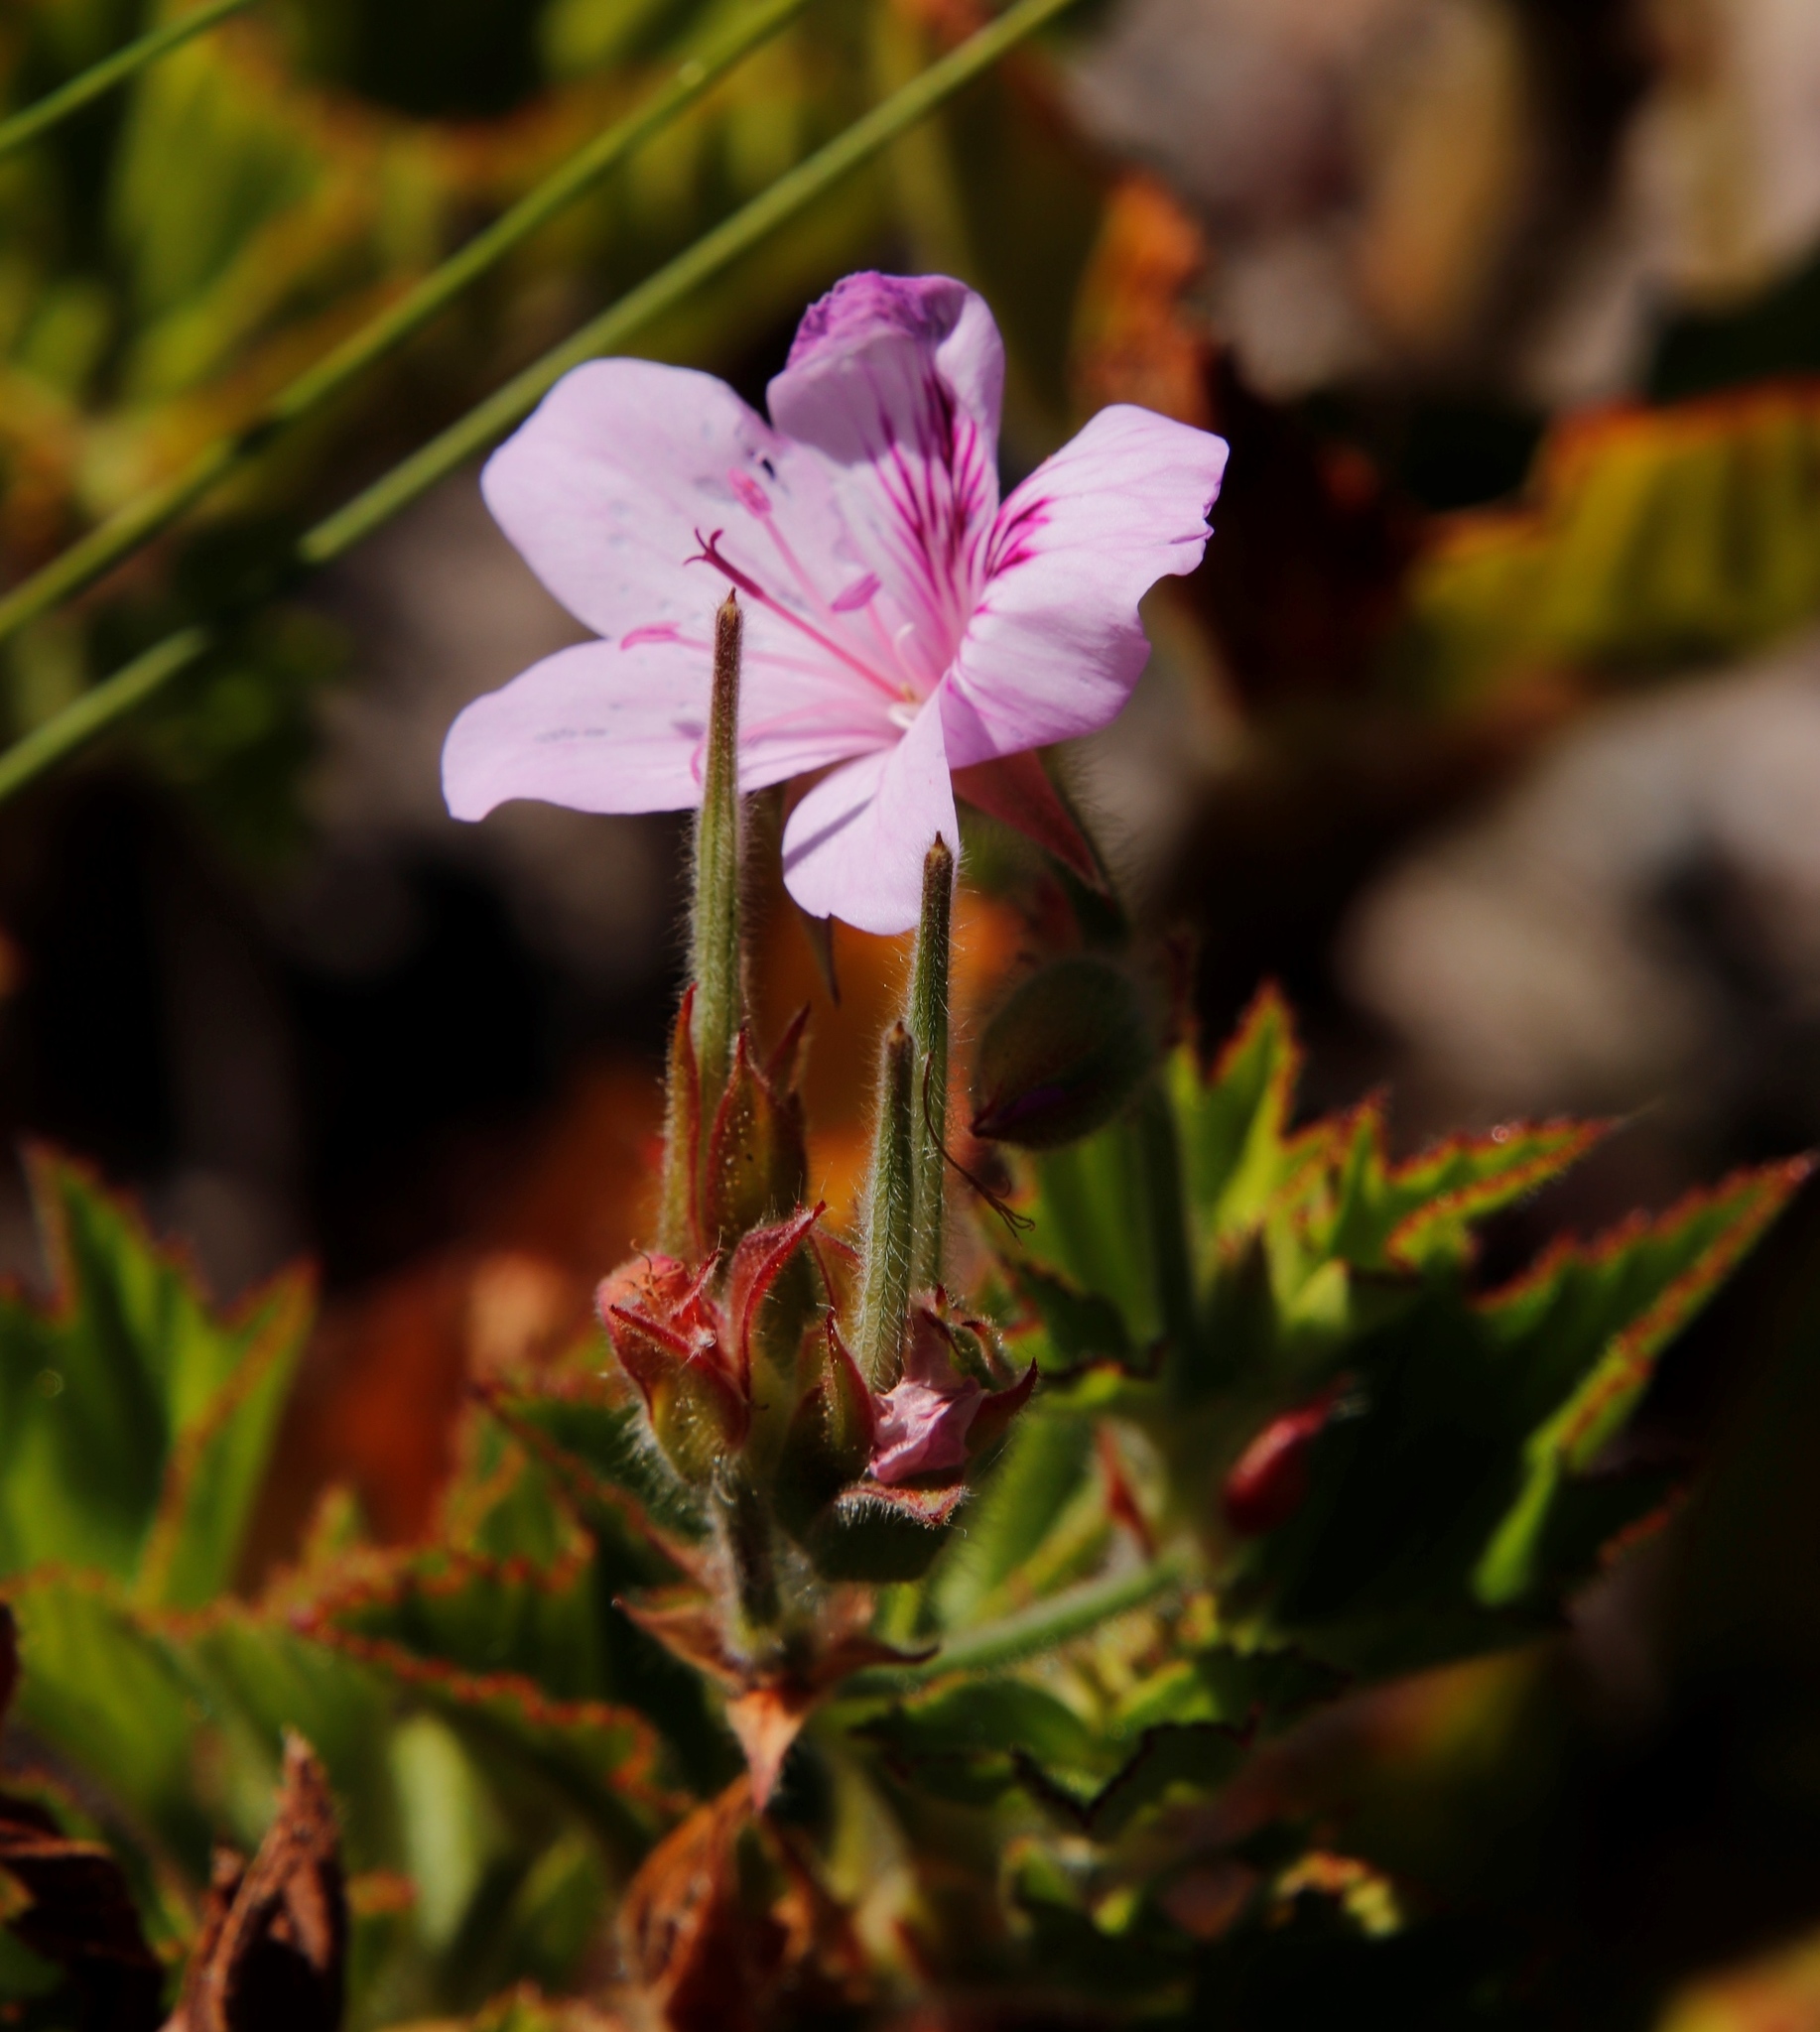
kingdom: Plantae
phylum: Tracheophyta
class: Magnoliopsida
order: Geraniales
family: Geraniaceae
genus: Pelargonium
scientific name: Pelargonium cucullatum
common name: Tree pelargonium
